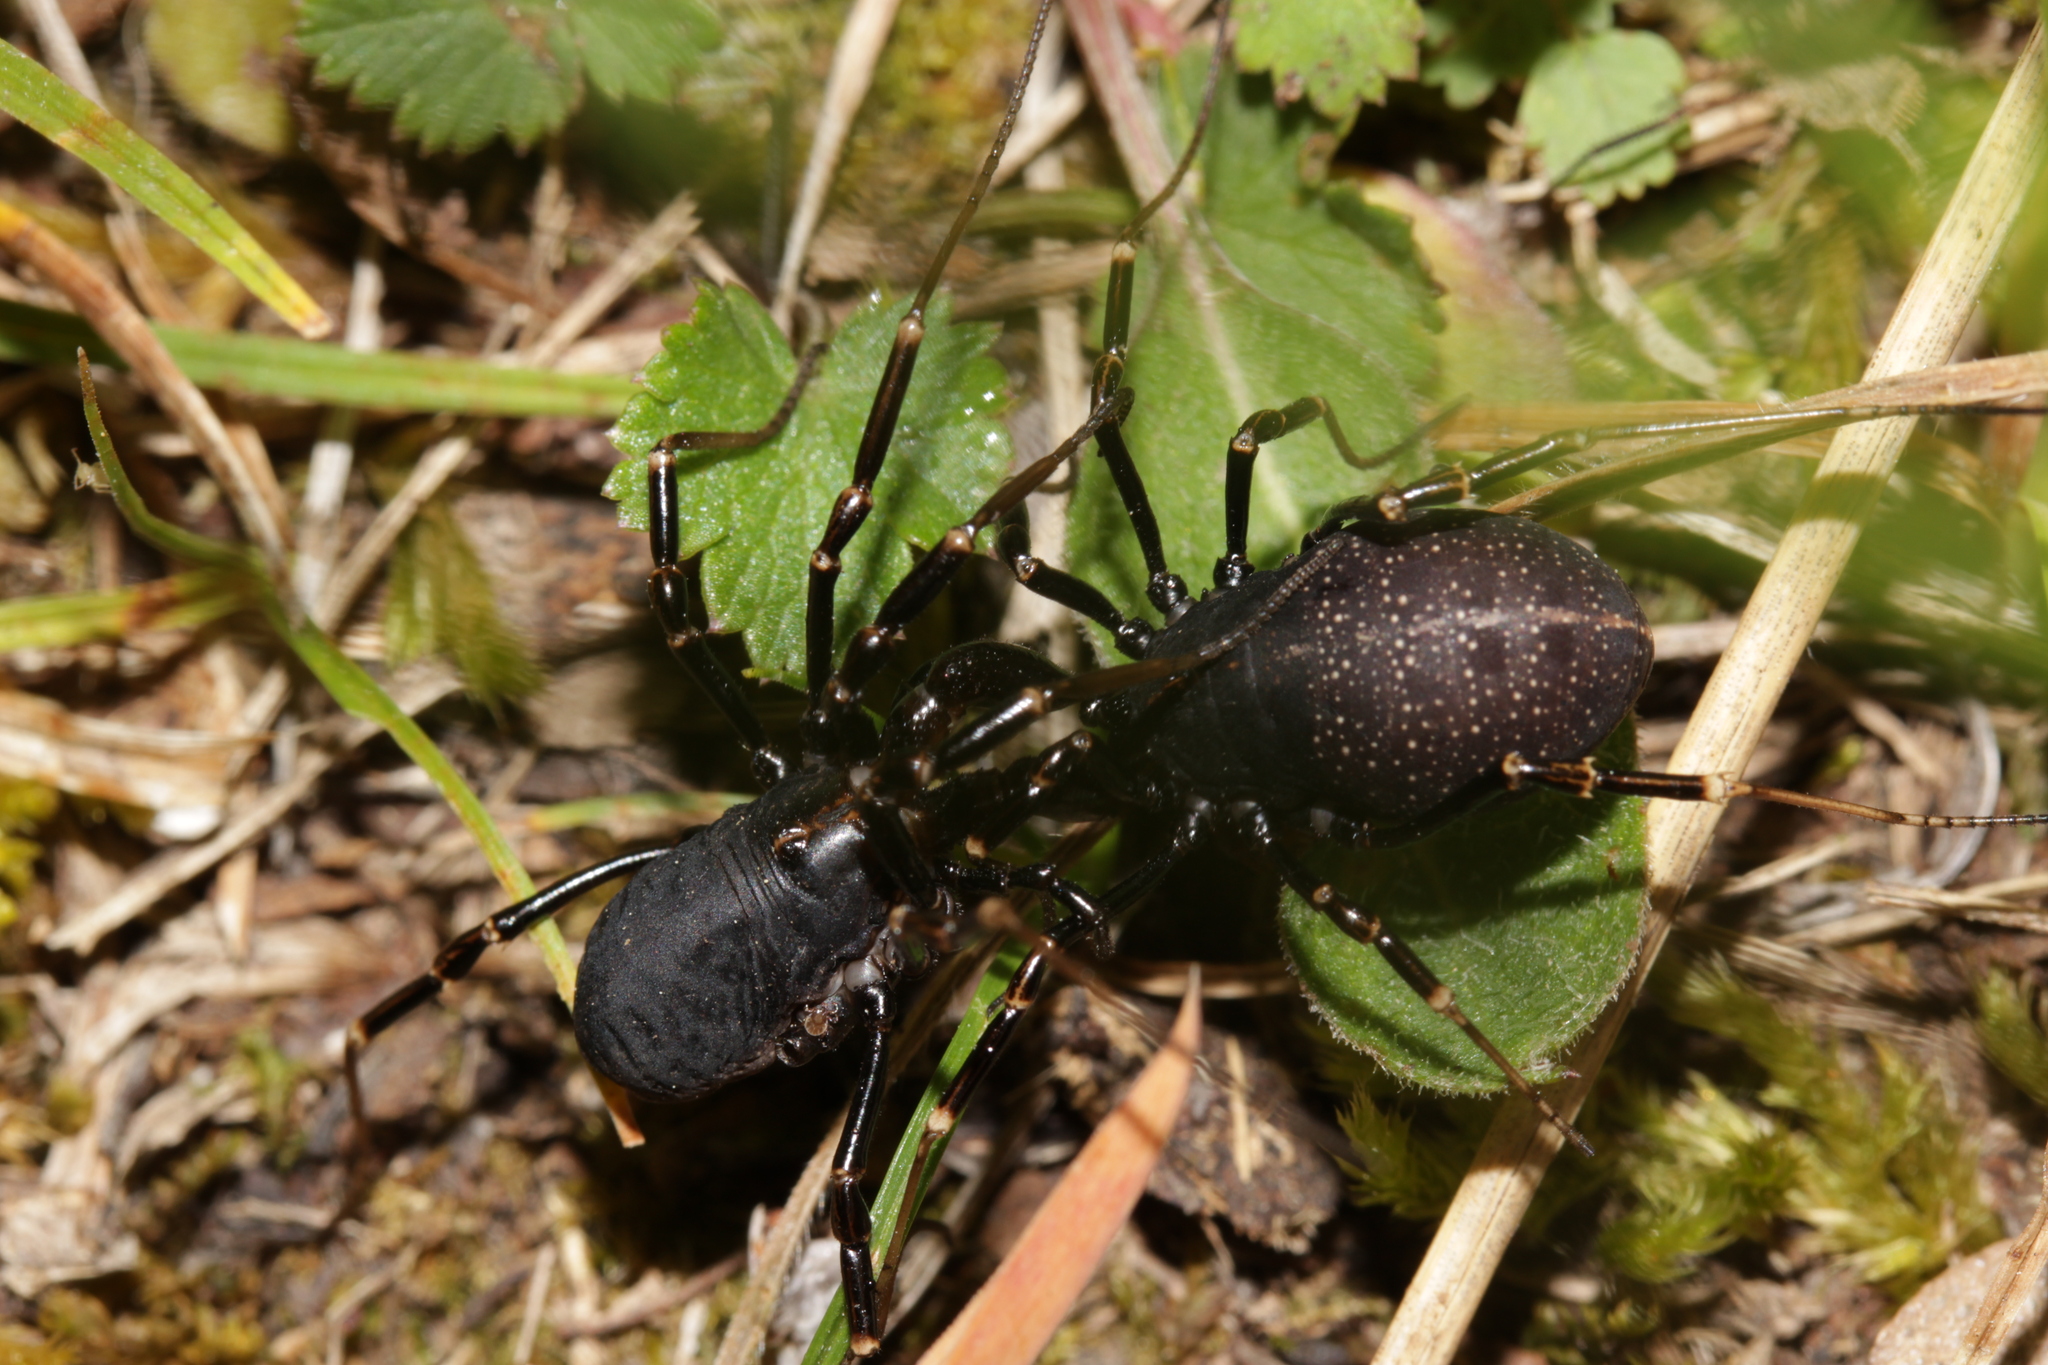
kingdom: Animalia
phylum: Arthropoda
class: Arachnida
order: Opiliones
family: Phalangiidae
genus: Egaenus
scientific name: Egaenus convexus
